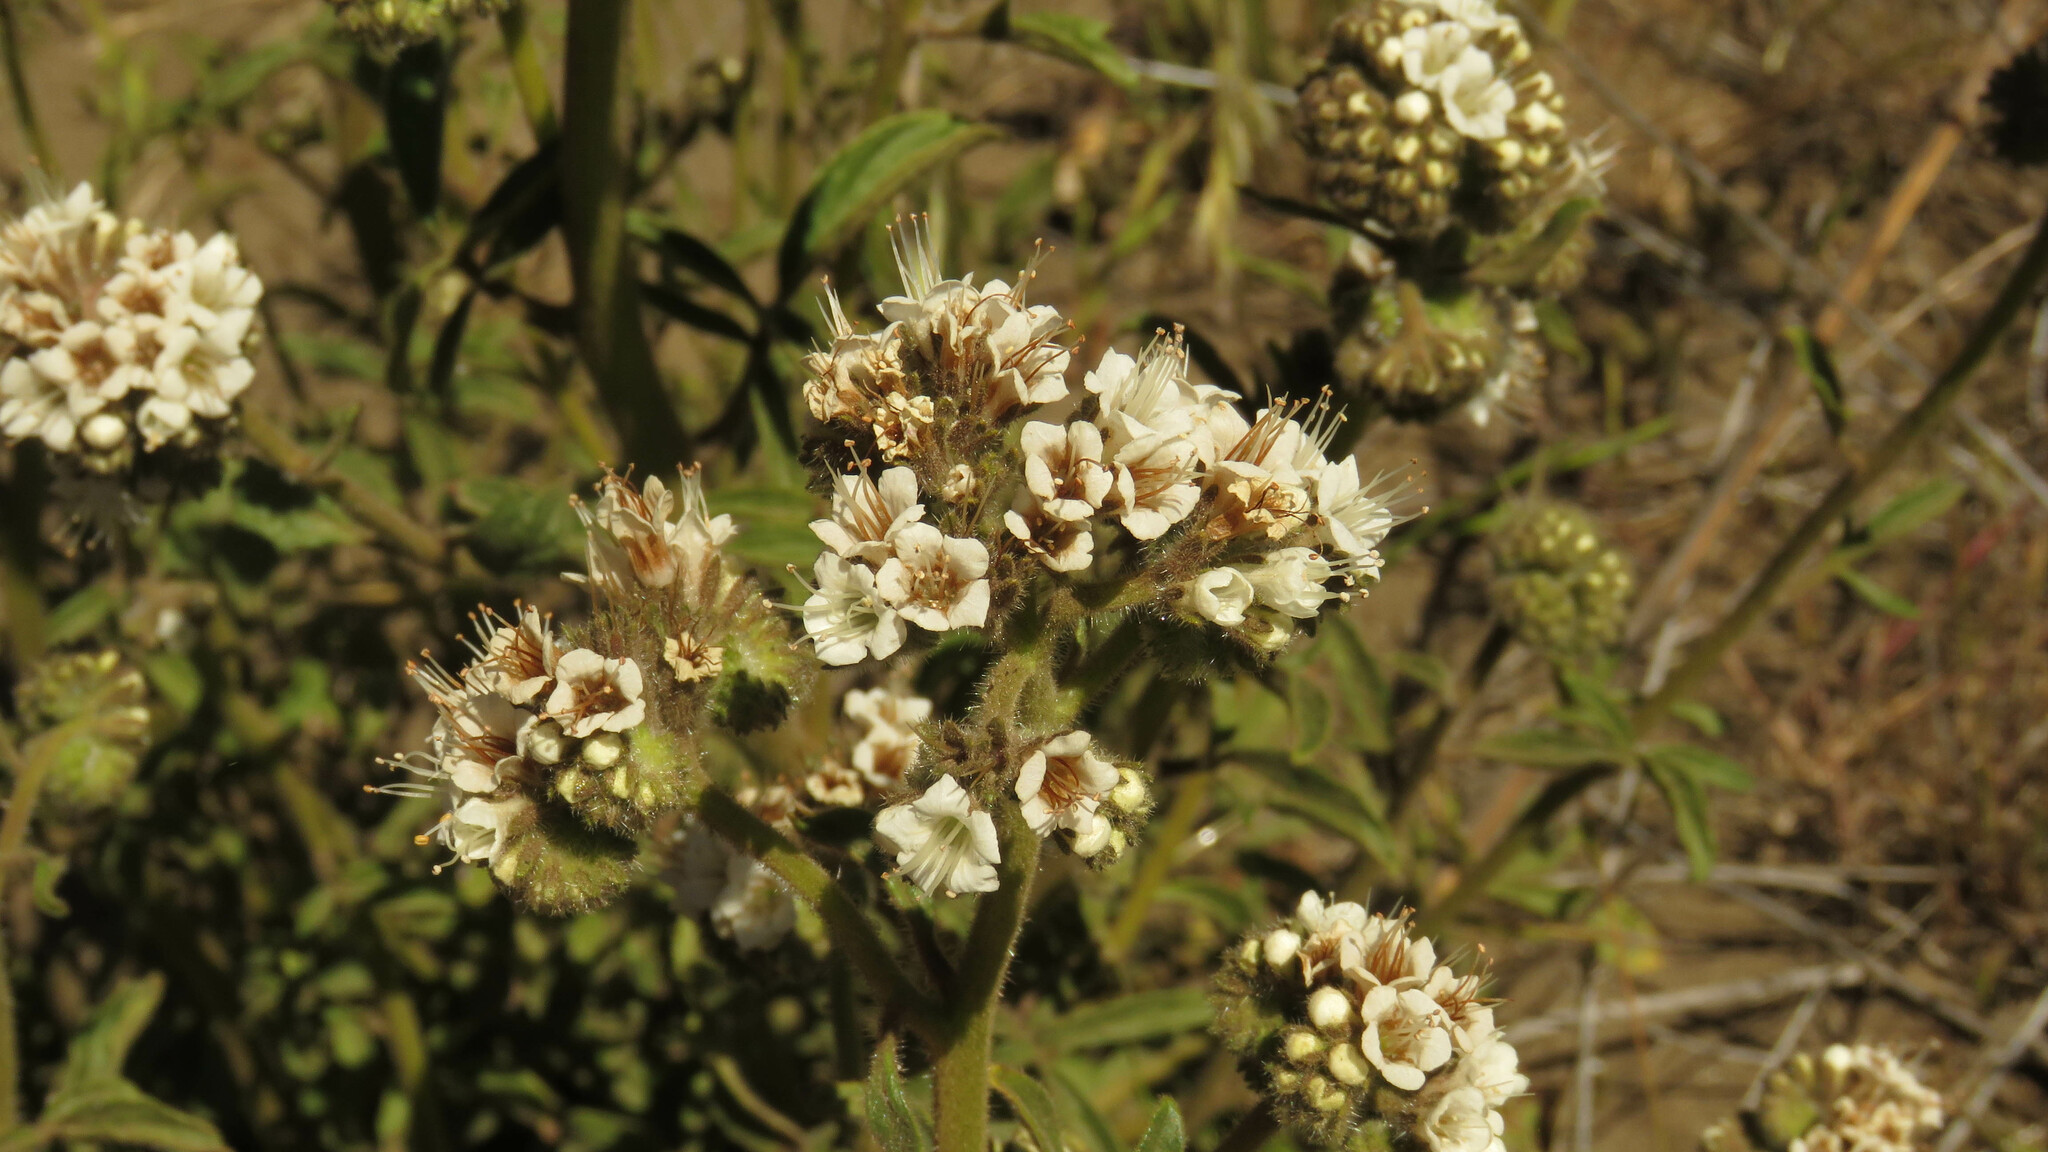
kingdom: Plantae
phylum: Tracheophyta
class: Magnoliopsida
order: Boraginales
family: Hydrophyllaceae
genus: Phacelia
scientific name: Phacelia secunda
